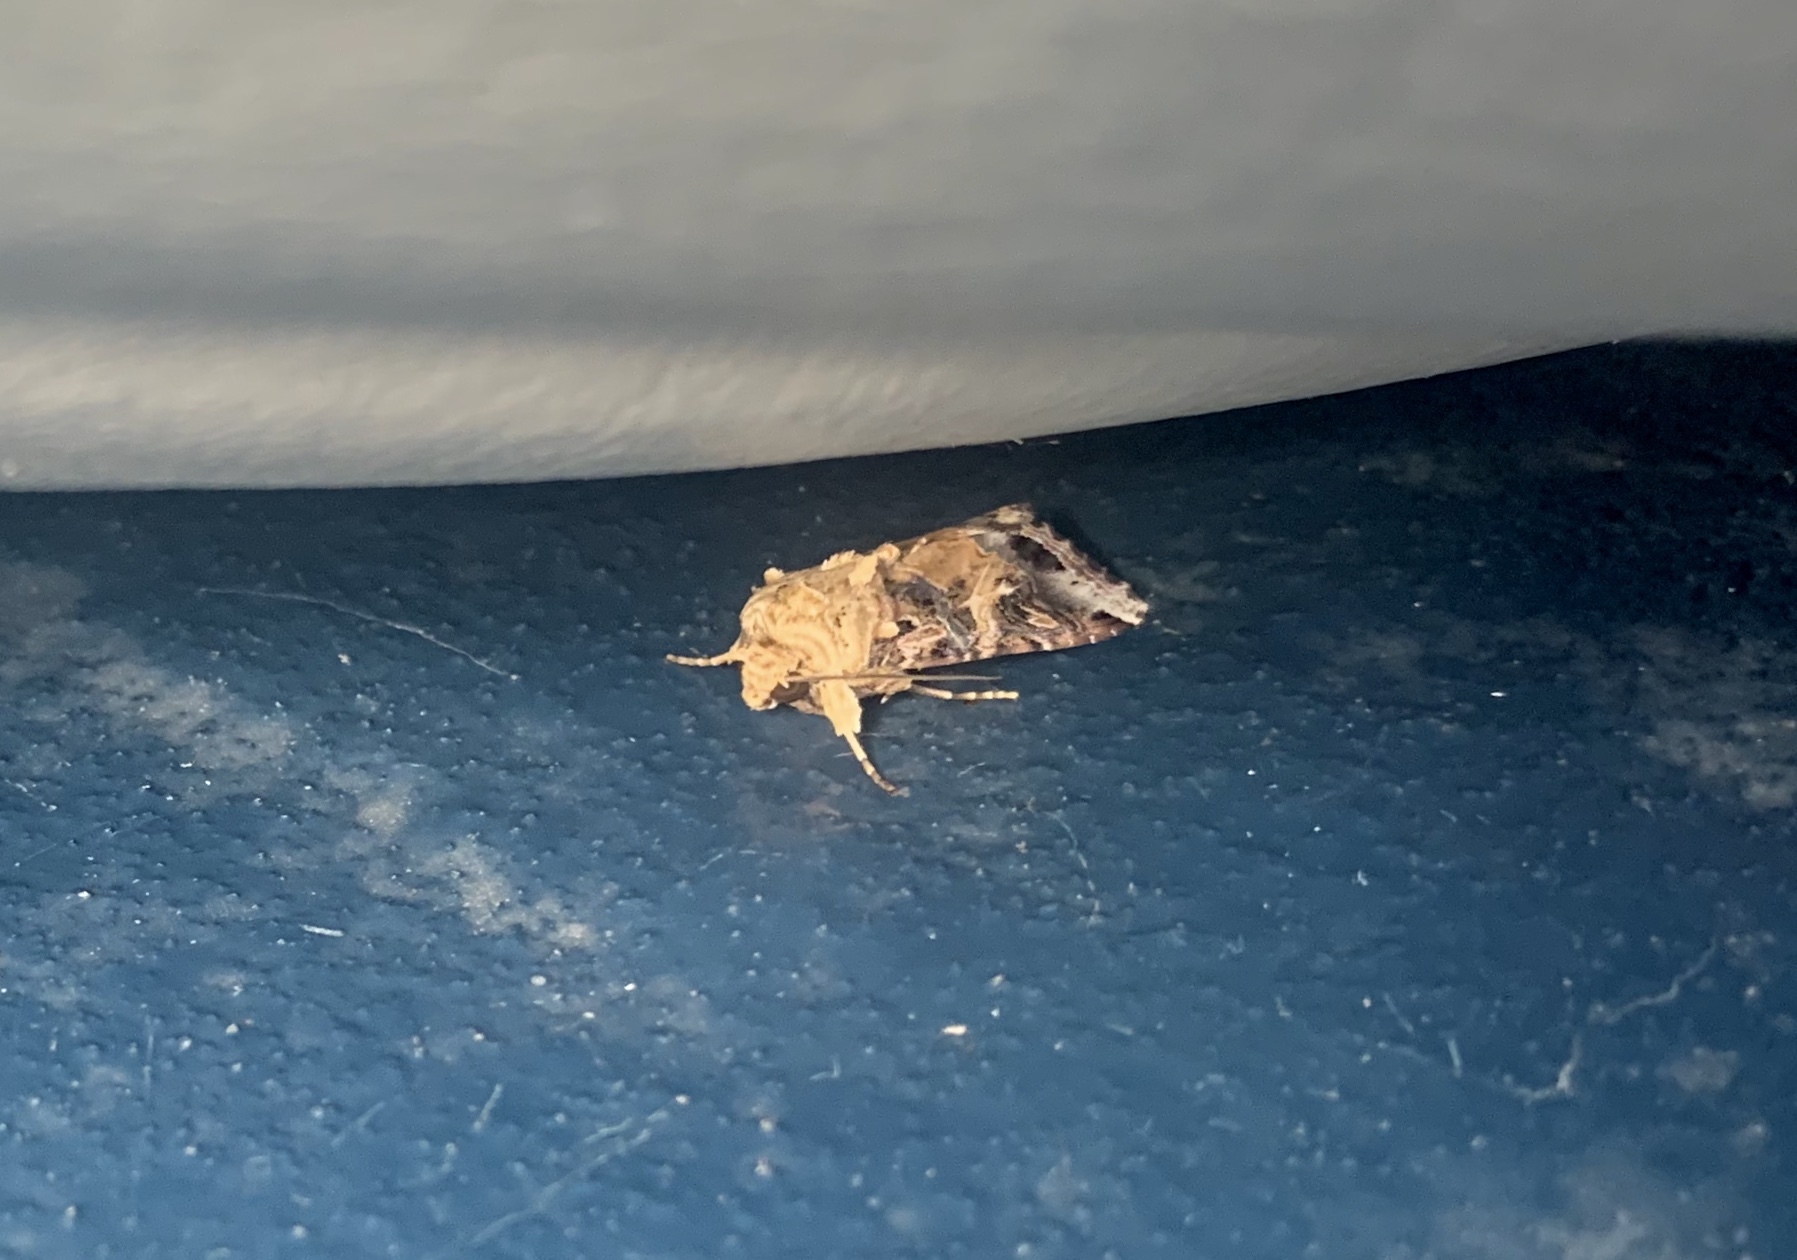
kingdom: Animalia
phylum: Arthropoda
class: Insecta
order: Lepidoptera
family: Noctuidae
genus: Spodoptera
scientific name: Spodoptera ornithogalli
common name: Yellow-striped armyworm
